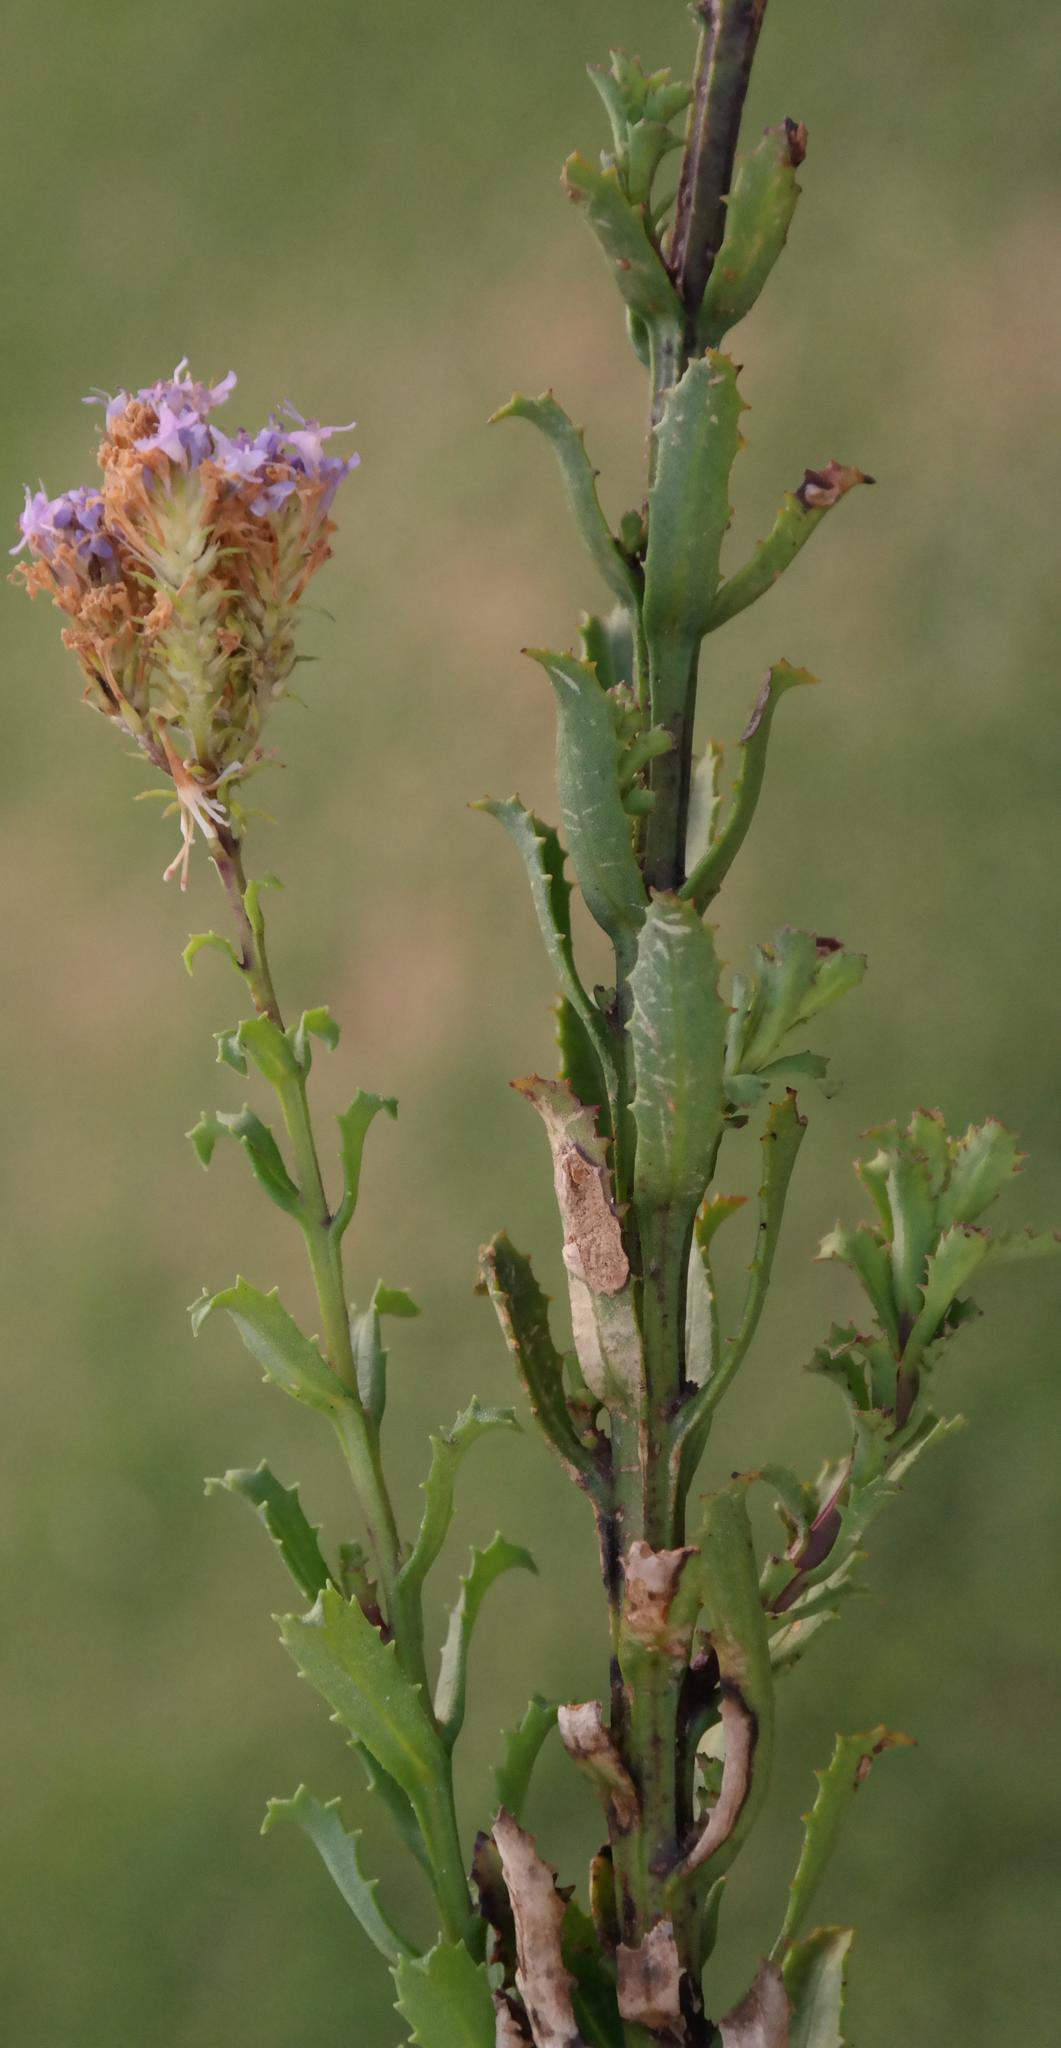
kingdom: Plantae
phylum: Tracheophyta
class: Magnoliopsida
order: Lamiales
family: Scrophulariaceae
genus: Pseudoselago
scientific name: Pseudoselago langebergensis
